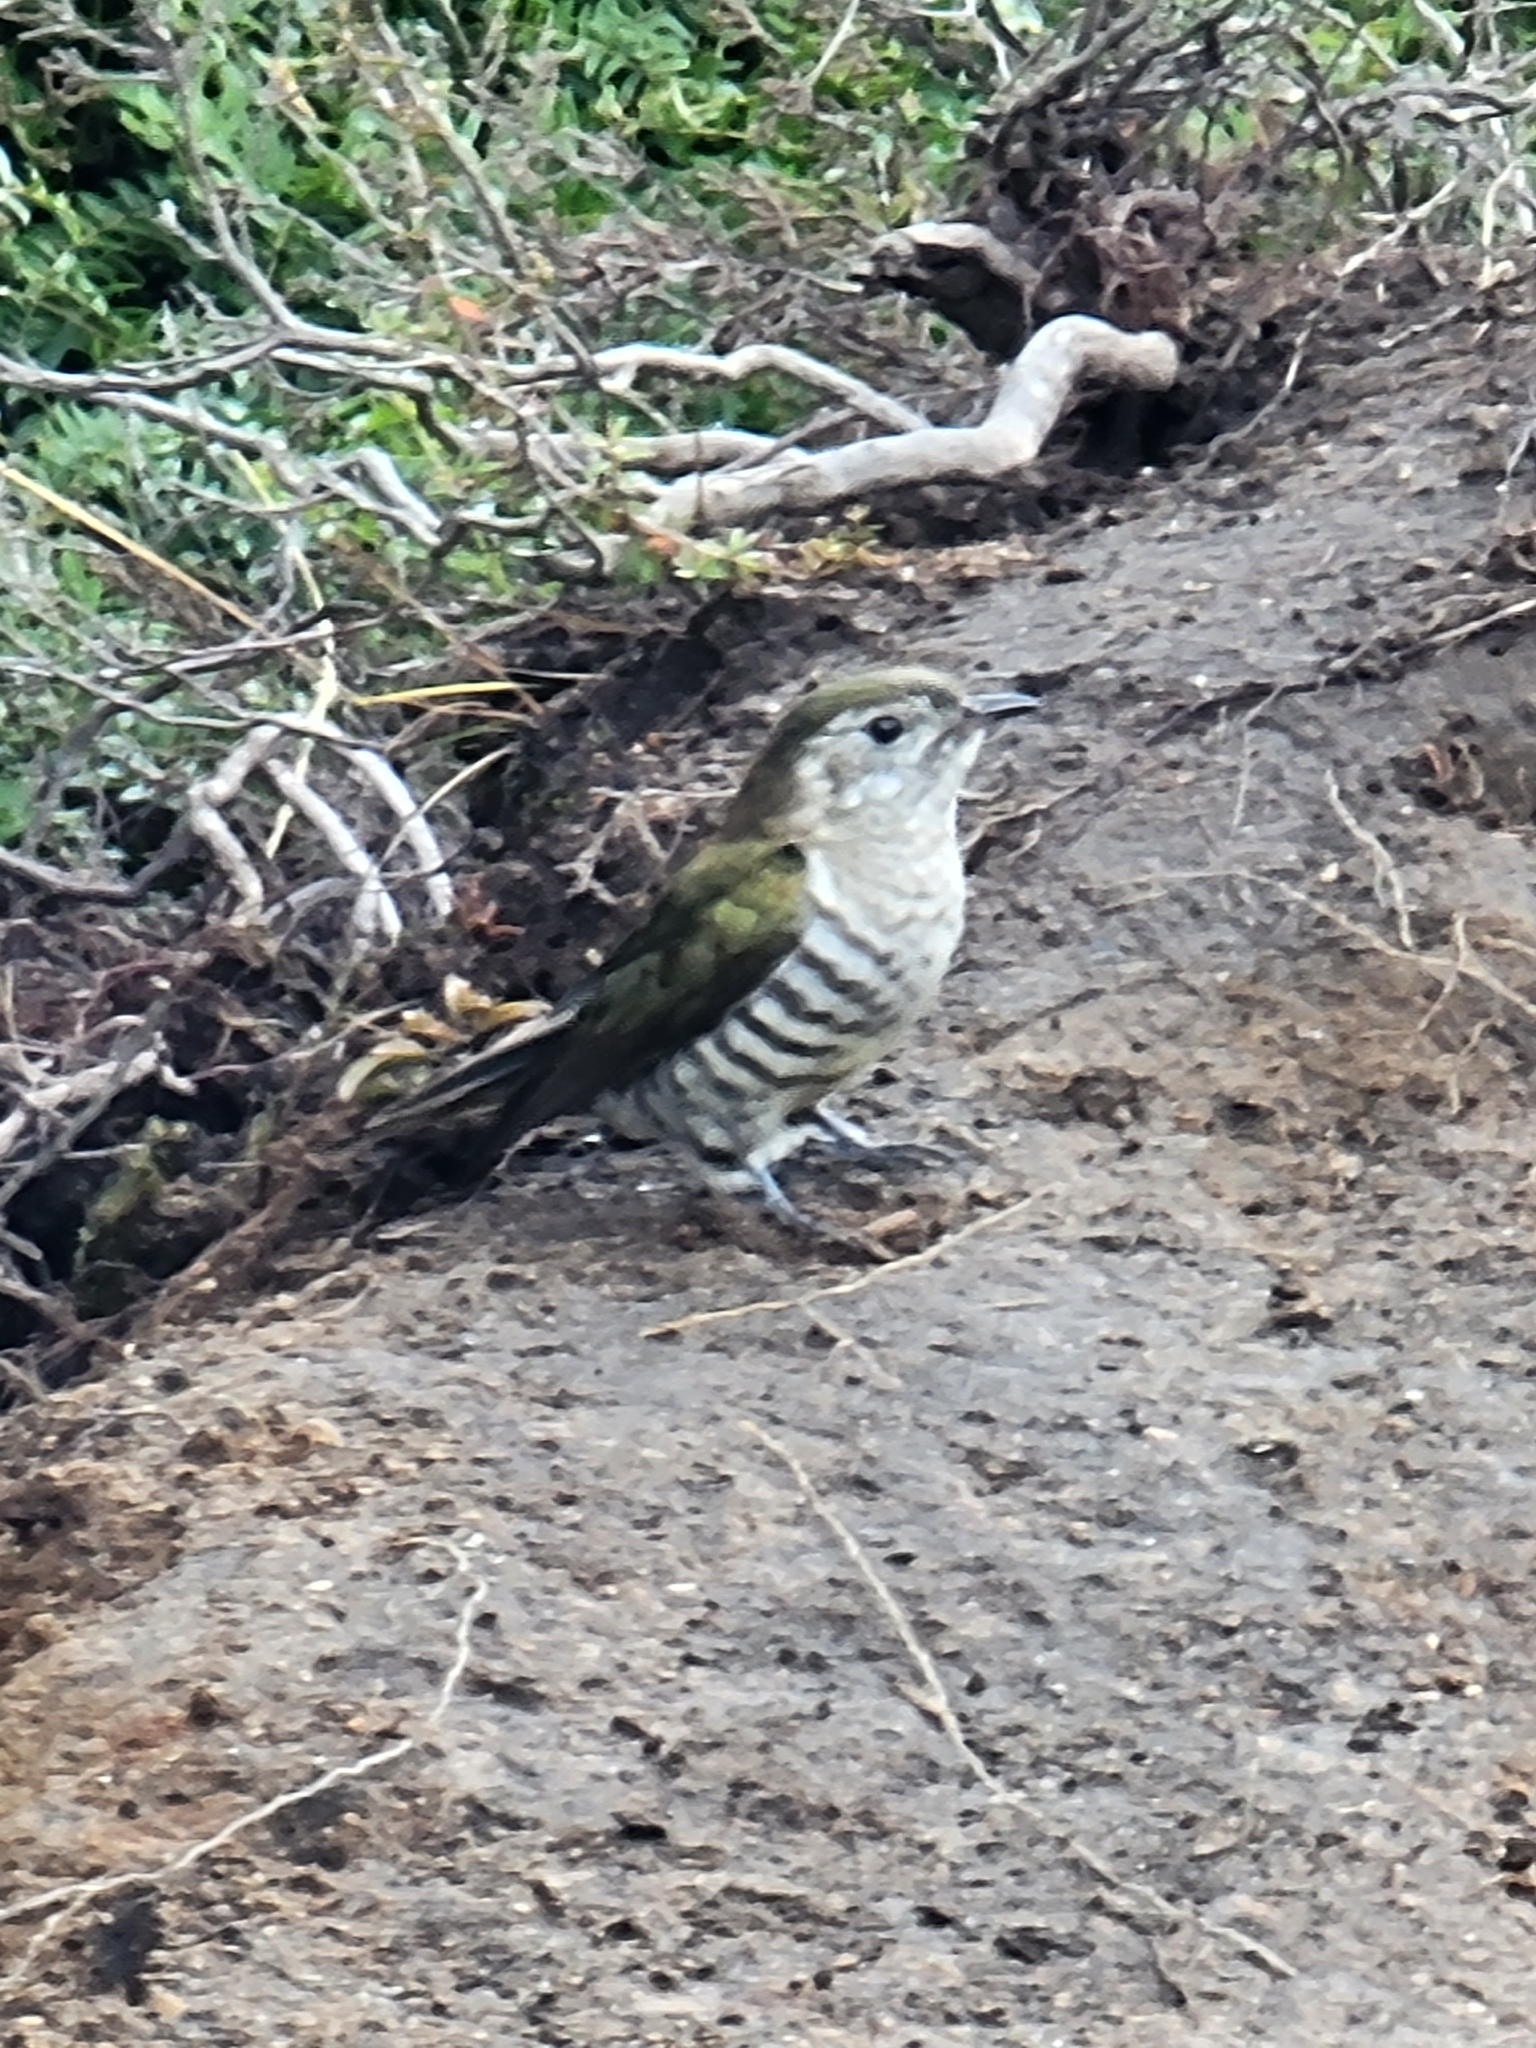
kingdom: Animalia
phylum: Chordata
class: Aves
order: Cuculiformes
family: Cuculidae
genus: Chrysococcyx
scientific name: Chrysococcyx lucidus
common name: Shining bronze cuckoo
